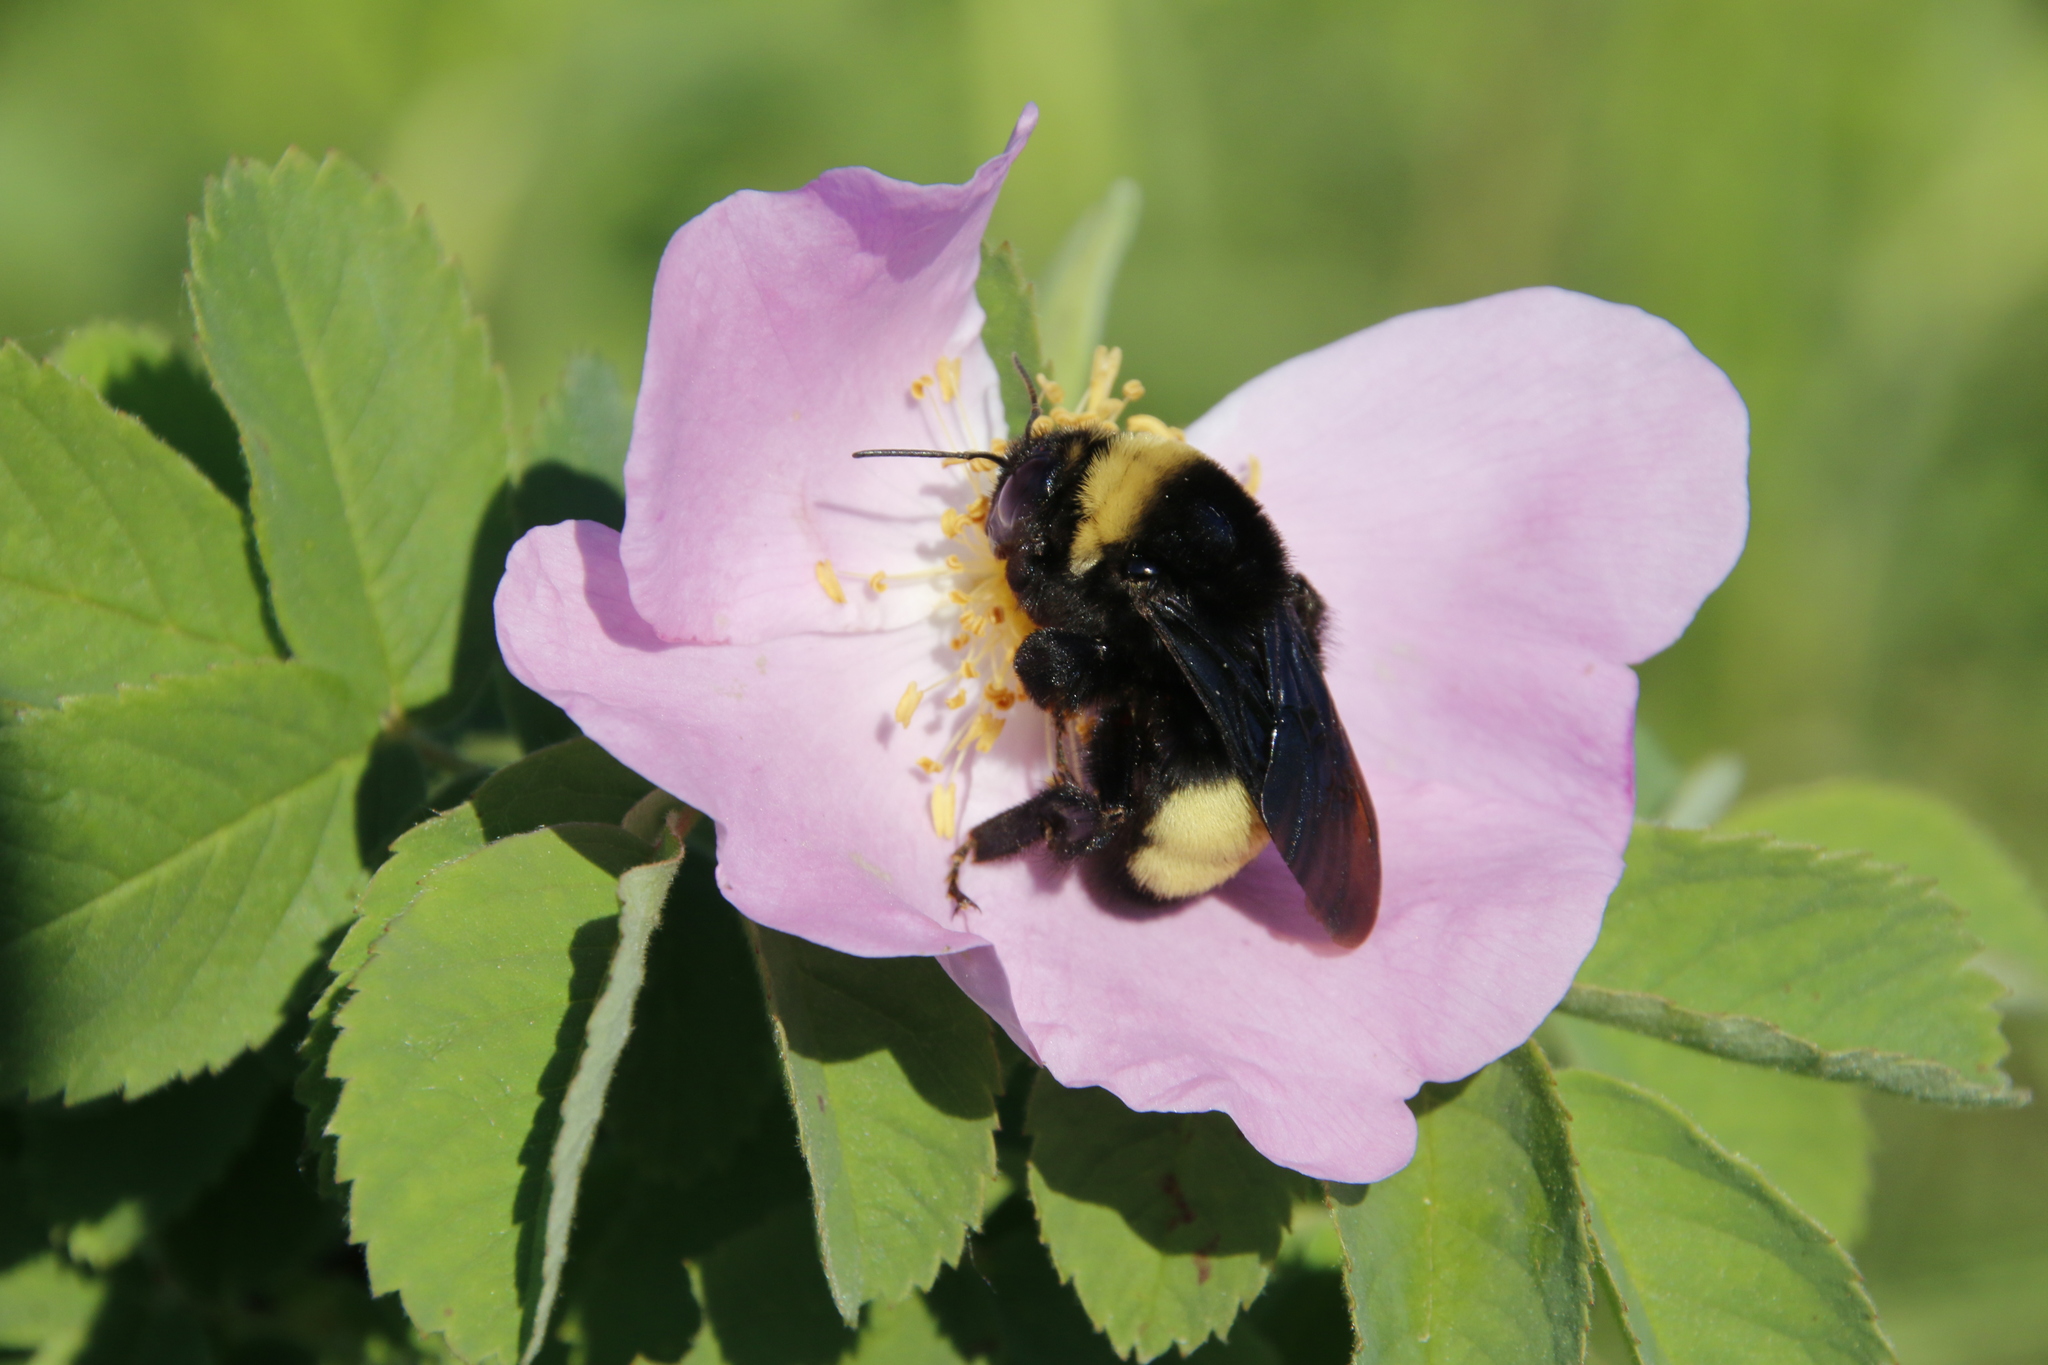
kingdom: Animalia
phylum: Arthropoda
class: Insecta
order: Hymenoptera
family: Apidae
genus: Bombus
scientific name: Bombus auricomus
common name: Black and gold bumble bee
